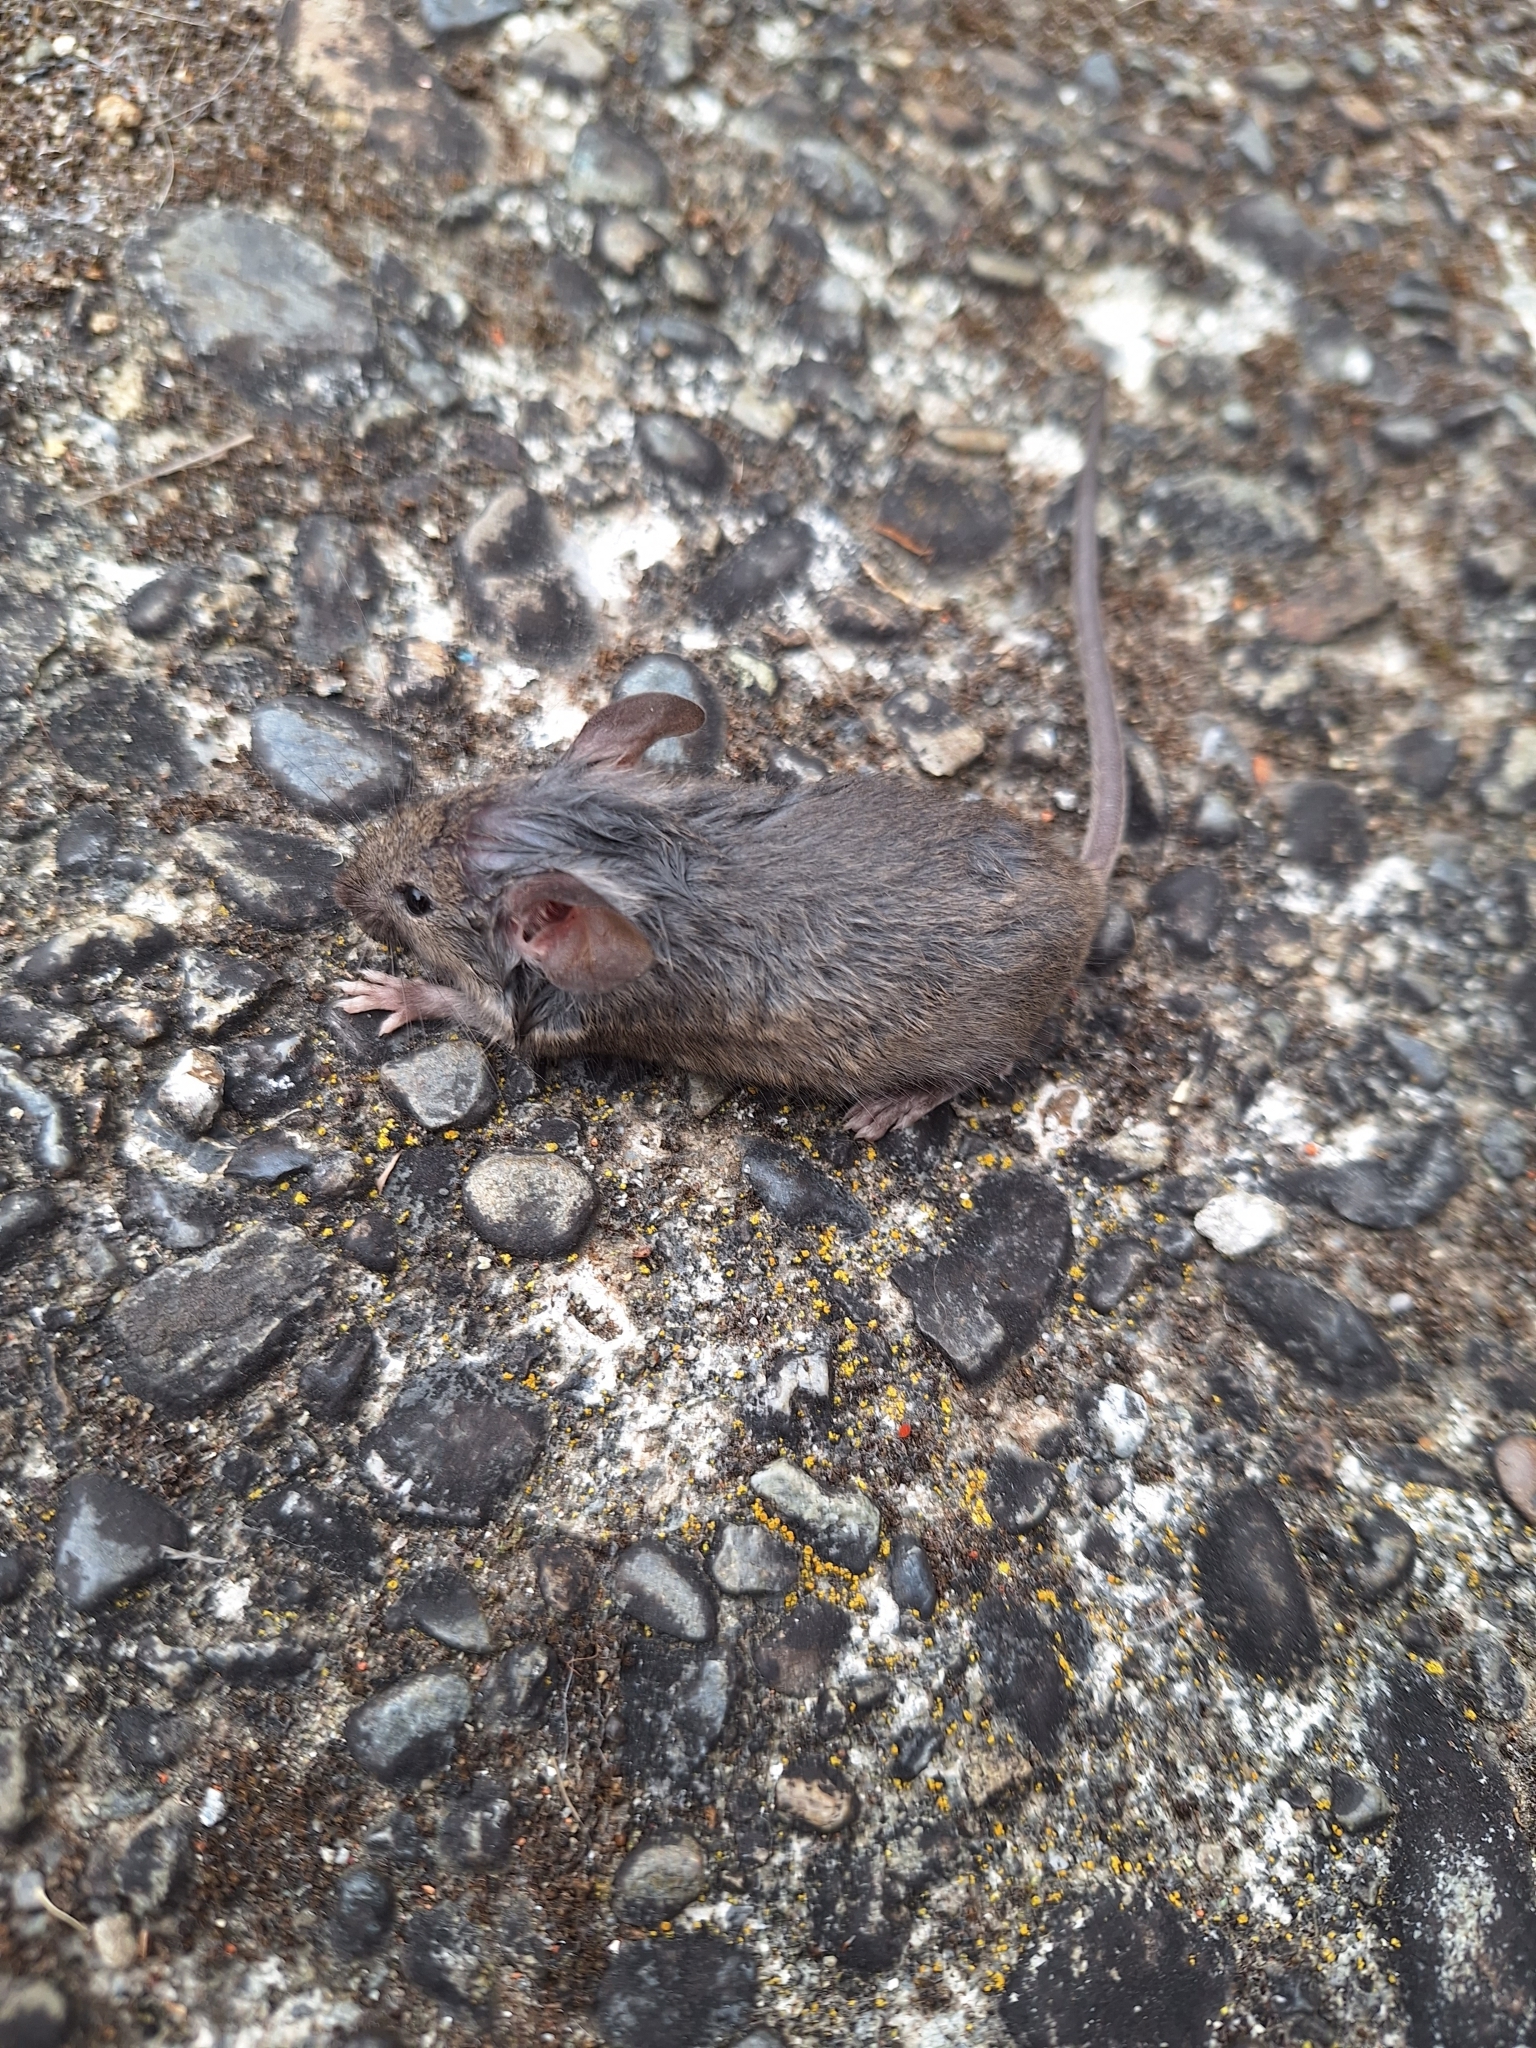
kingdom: Animalia
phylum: Chordata
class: Mammalia
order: Rodentia
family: Muridae
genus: Mus
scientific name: Mus musculus
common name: House mouse
